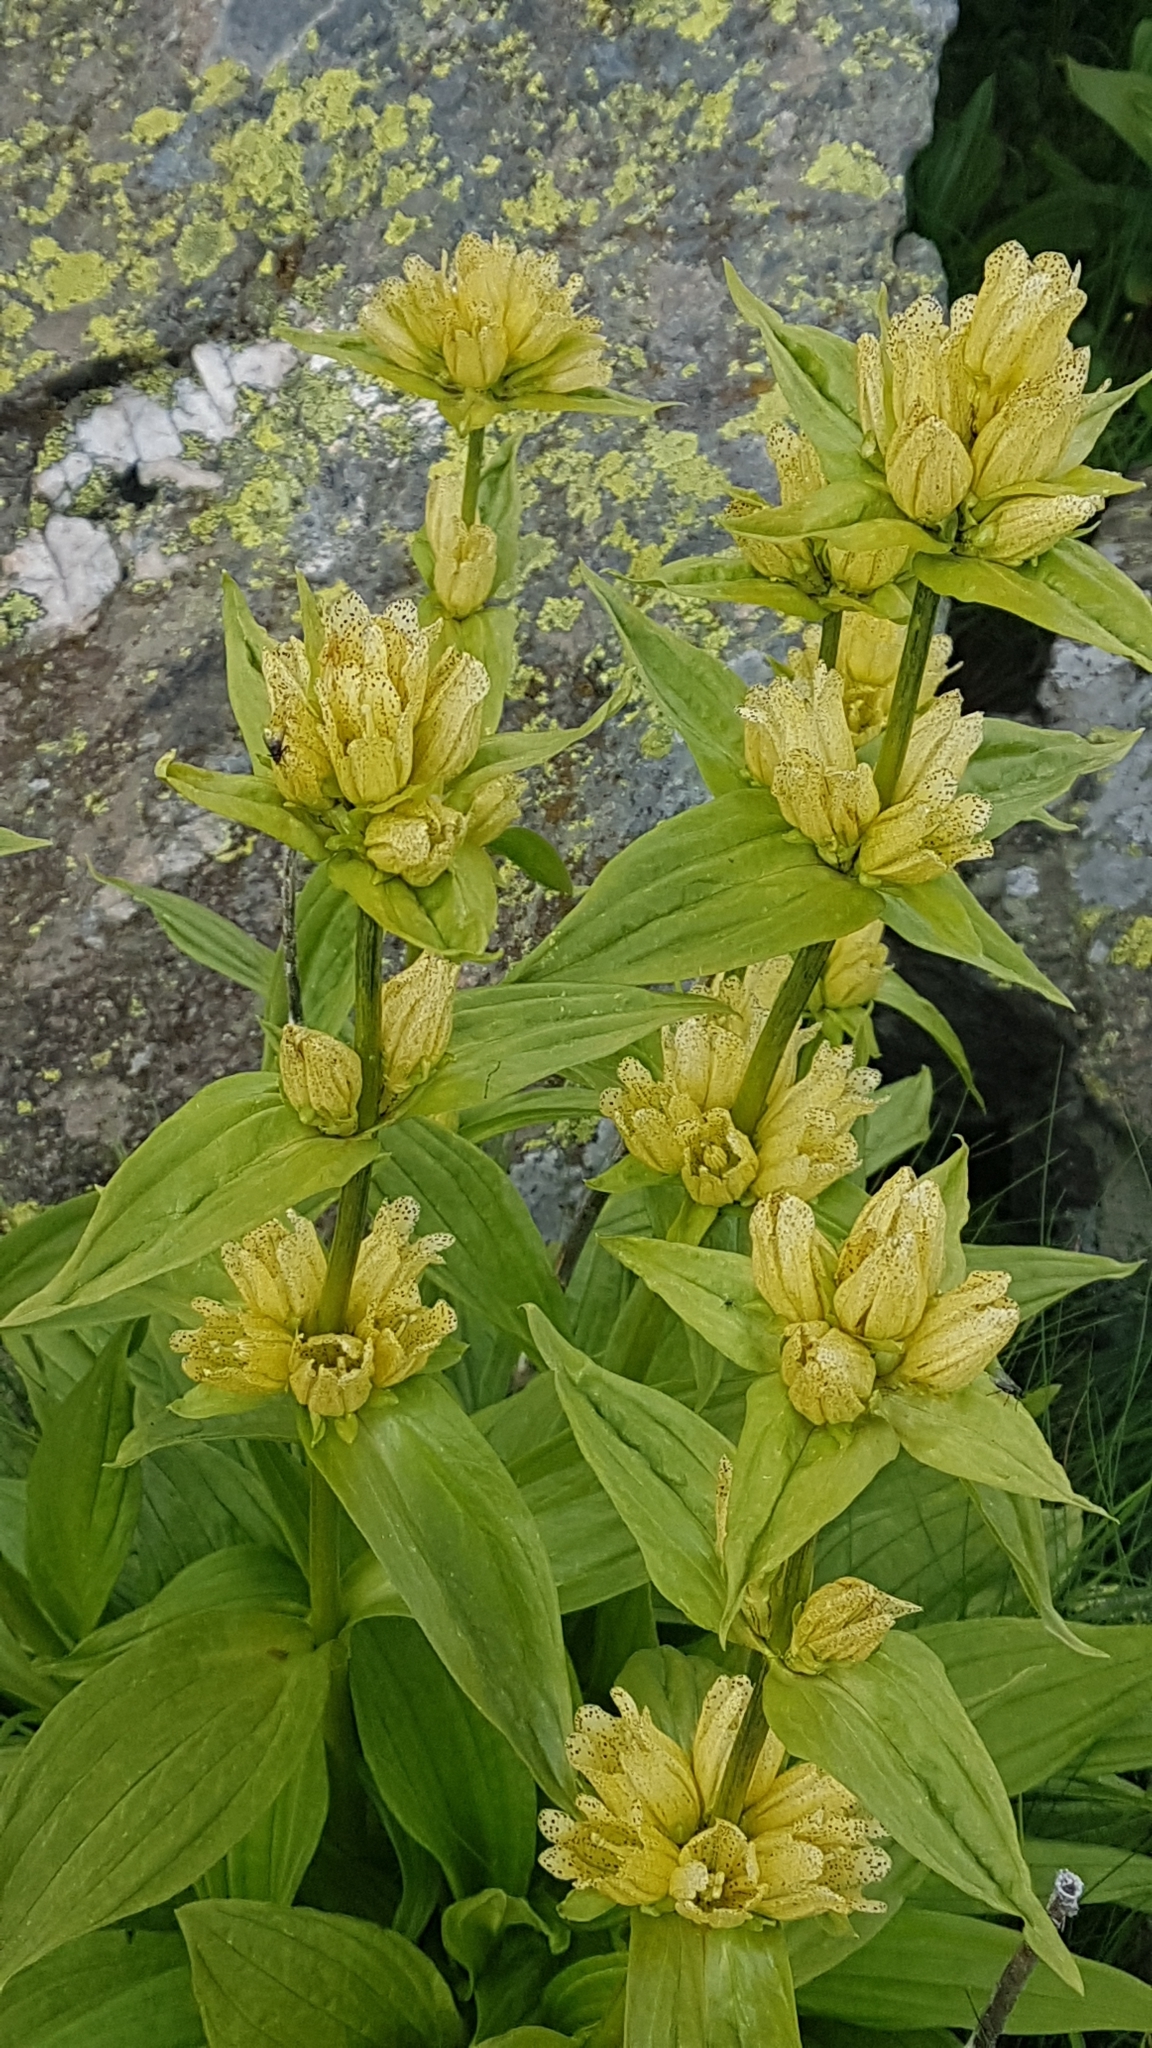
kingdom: Plantae
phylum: Tracheophyta
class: Magnoliopsida
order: Gentianales
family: Gentianaceae
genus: Gentiana
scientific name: Gentiana punctata
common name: Spotted gentian
